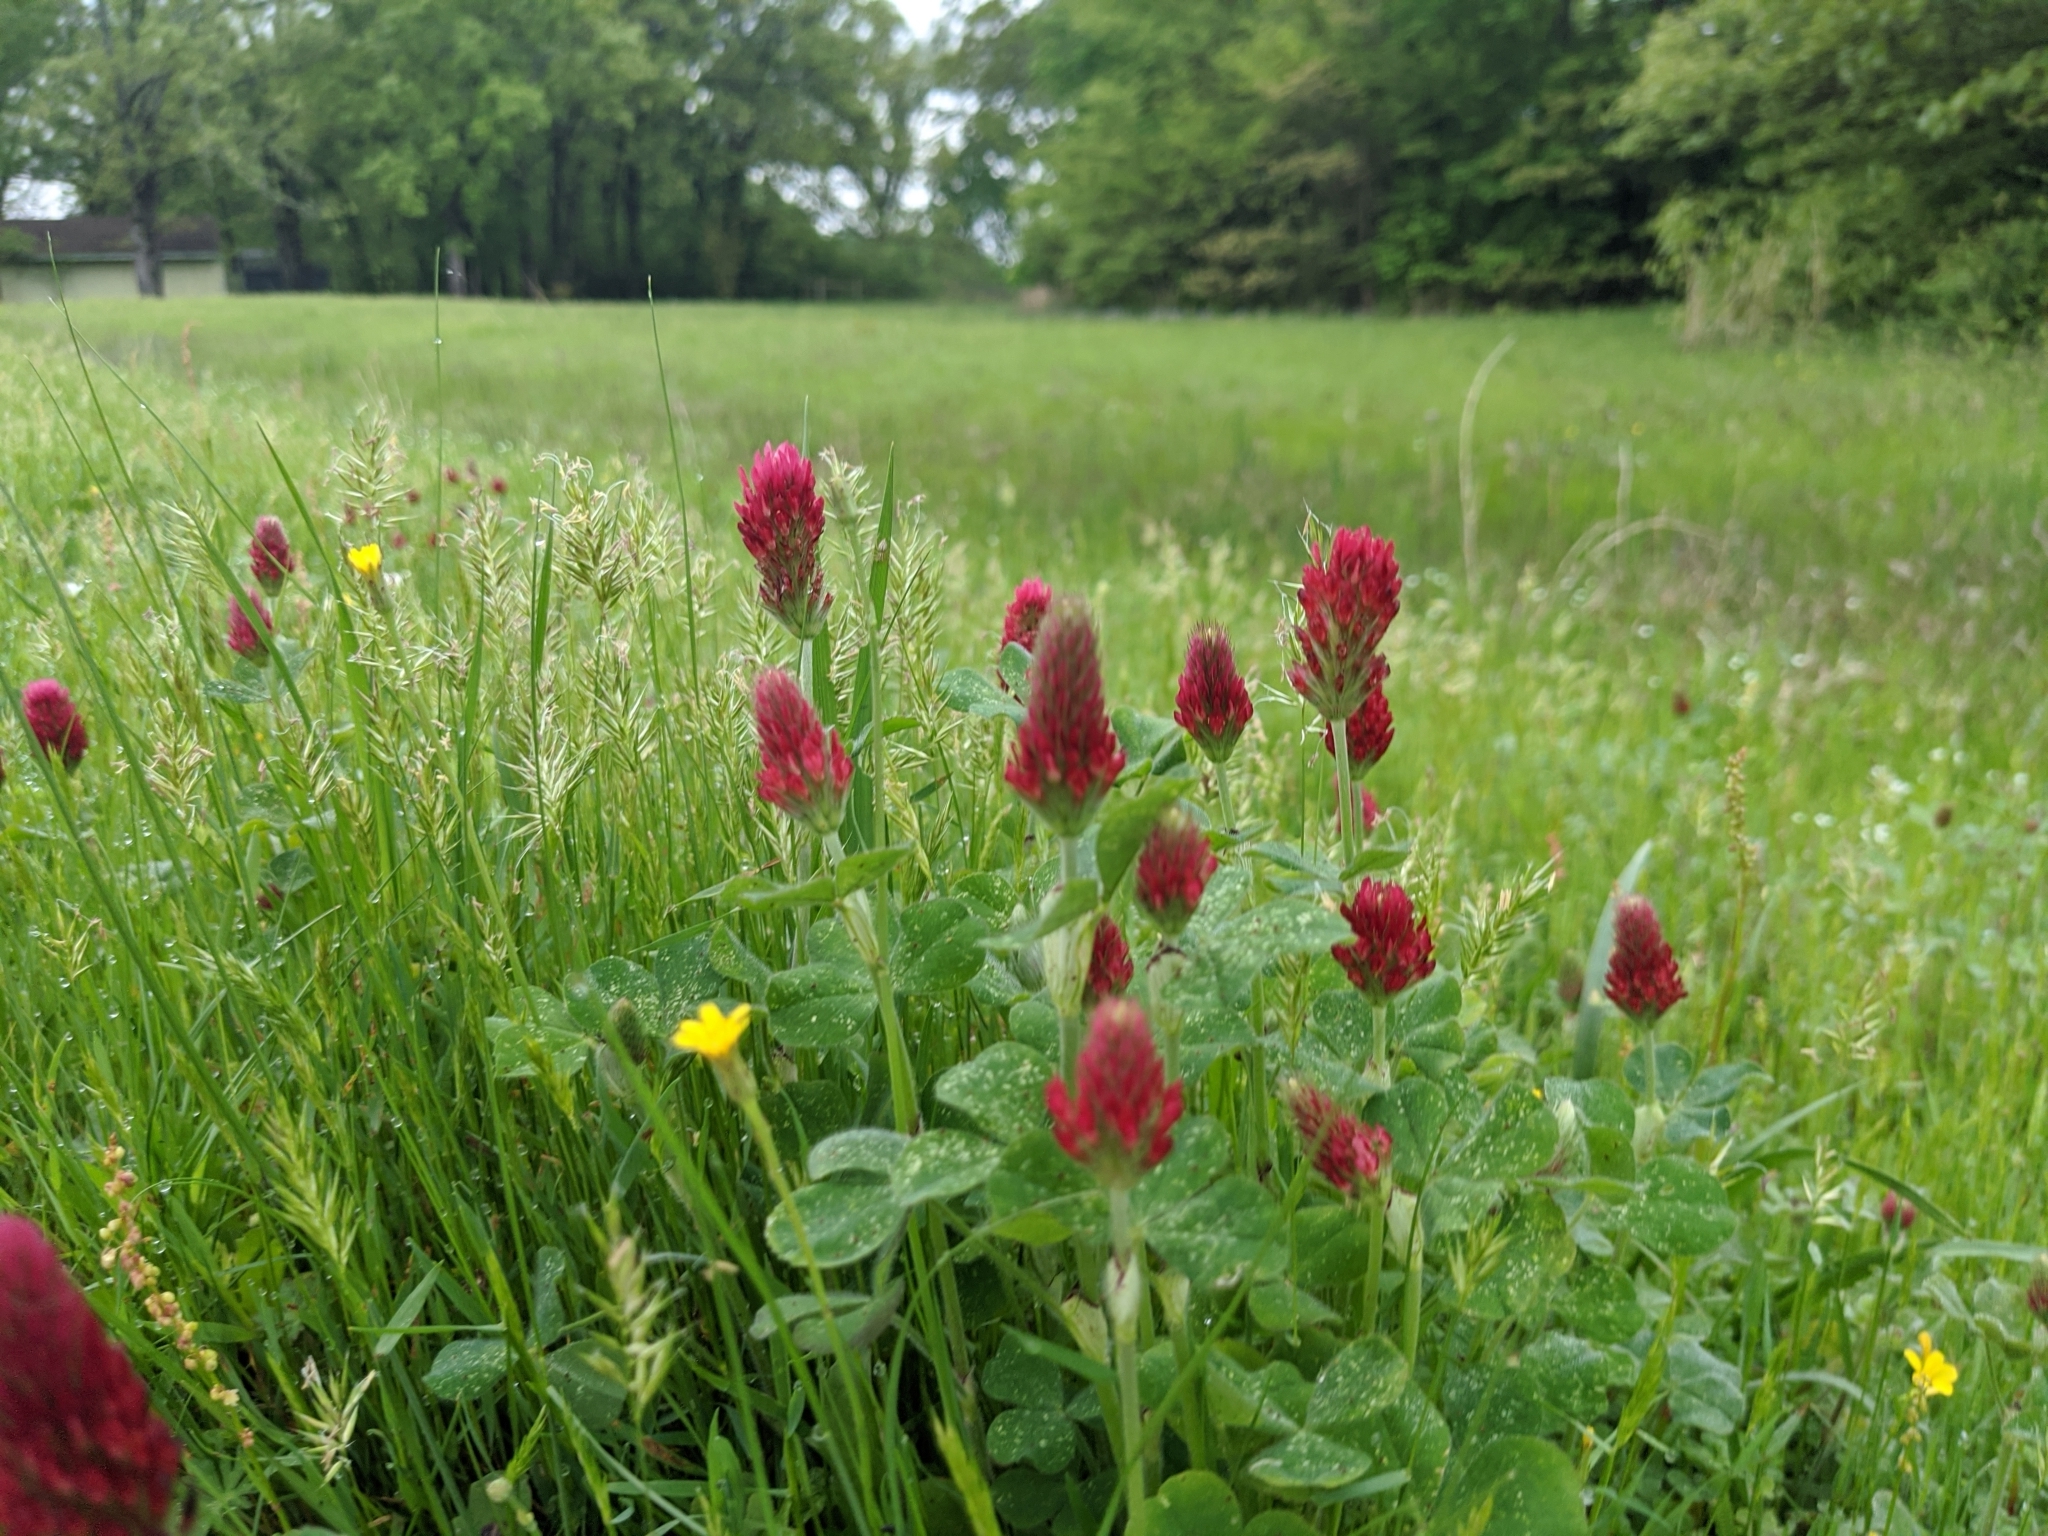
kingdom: Plantae
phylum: Tracheophyta
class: Magnoliopsida
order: Fabales
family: Fabaceae
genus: Trifolium
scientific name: Trifolium incarnatum
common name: Crimson clover
